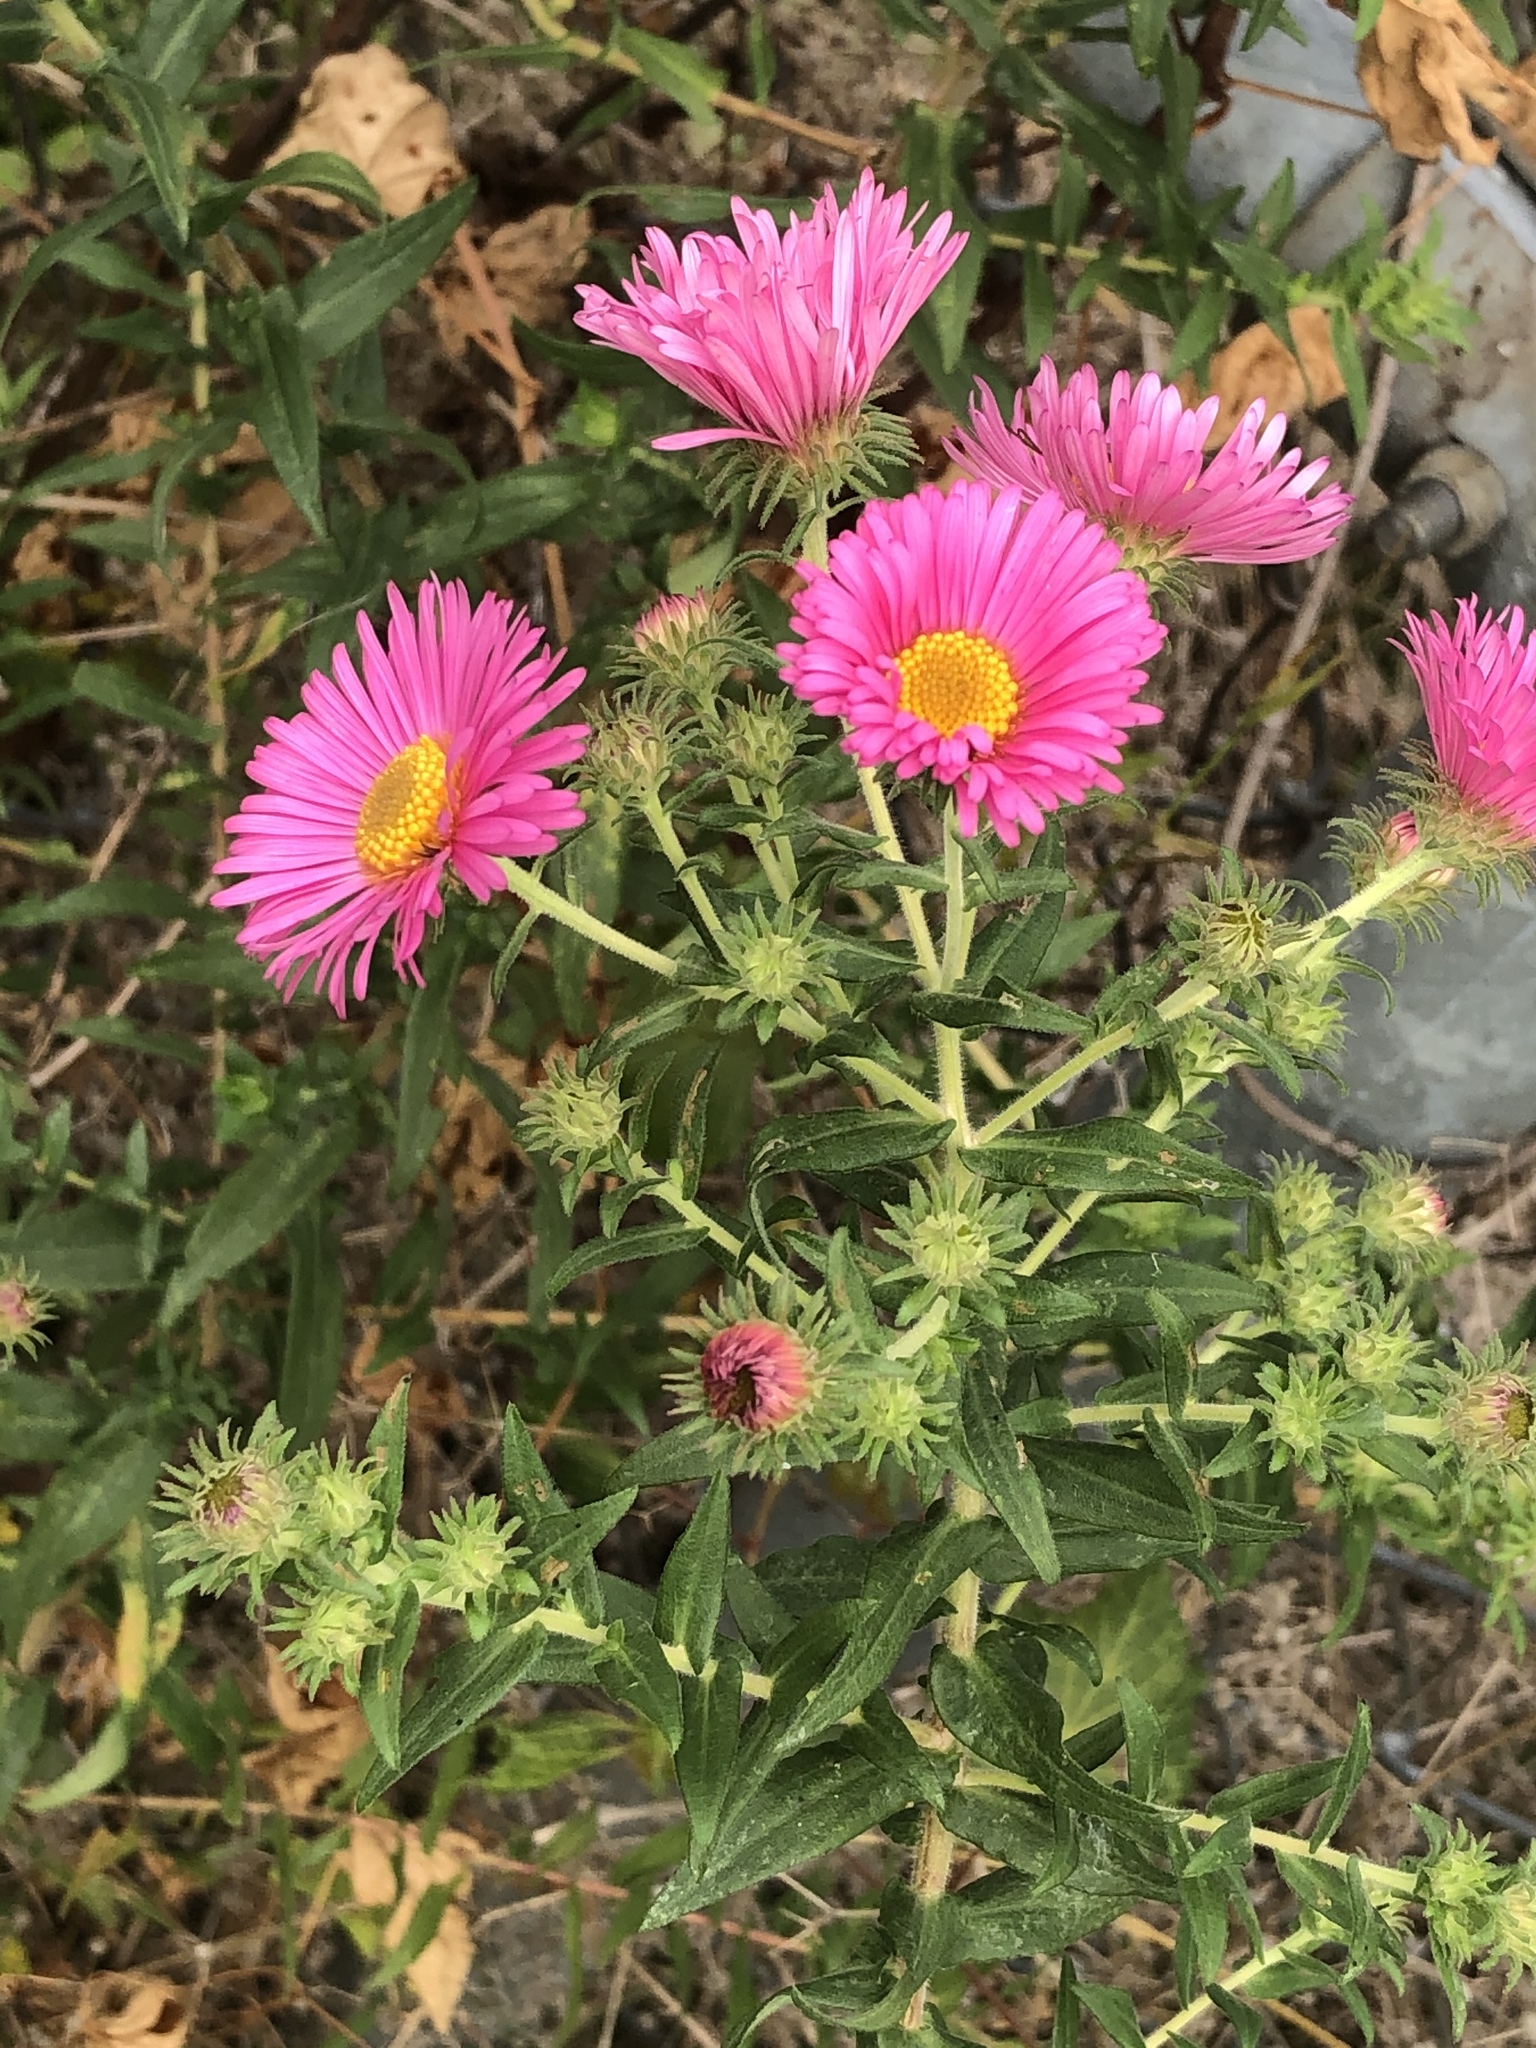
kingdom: Plantae
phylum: Tracheophyta
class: Magnoliopsida
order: Asterales
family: Asteraceae
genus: Symphyotrichum
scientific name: Symphyotrichum novae-angliae
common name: Michaelmas daisy
